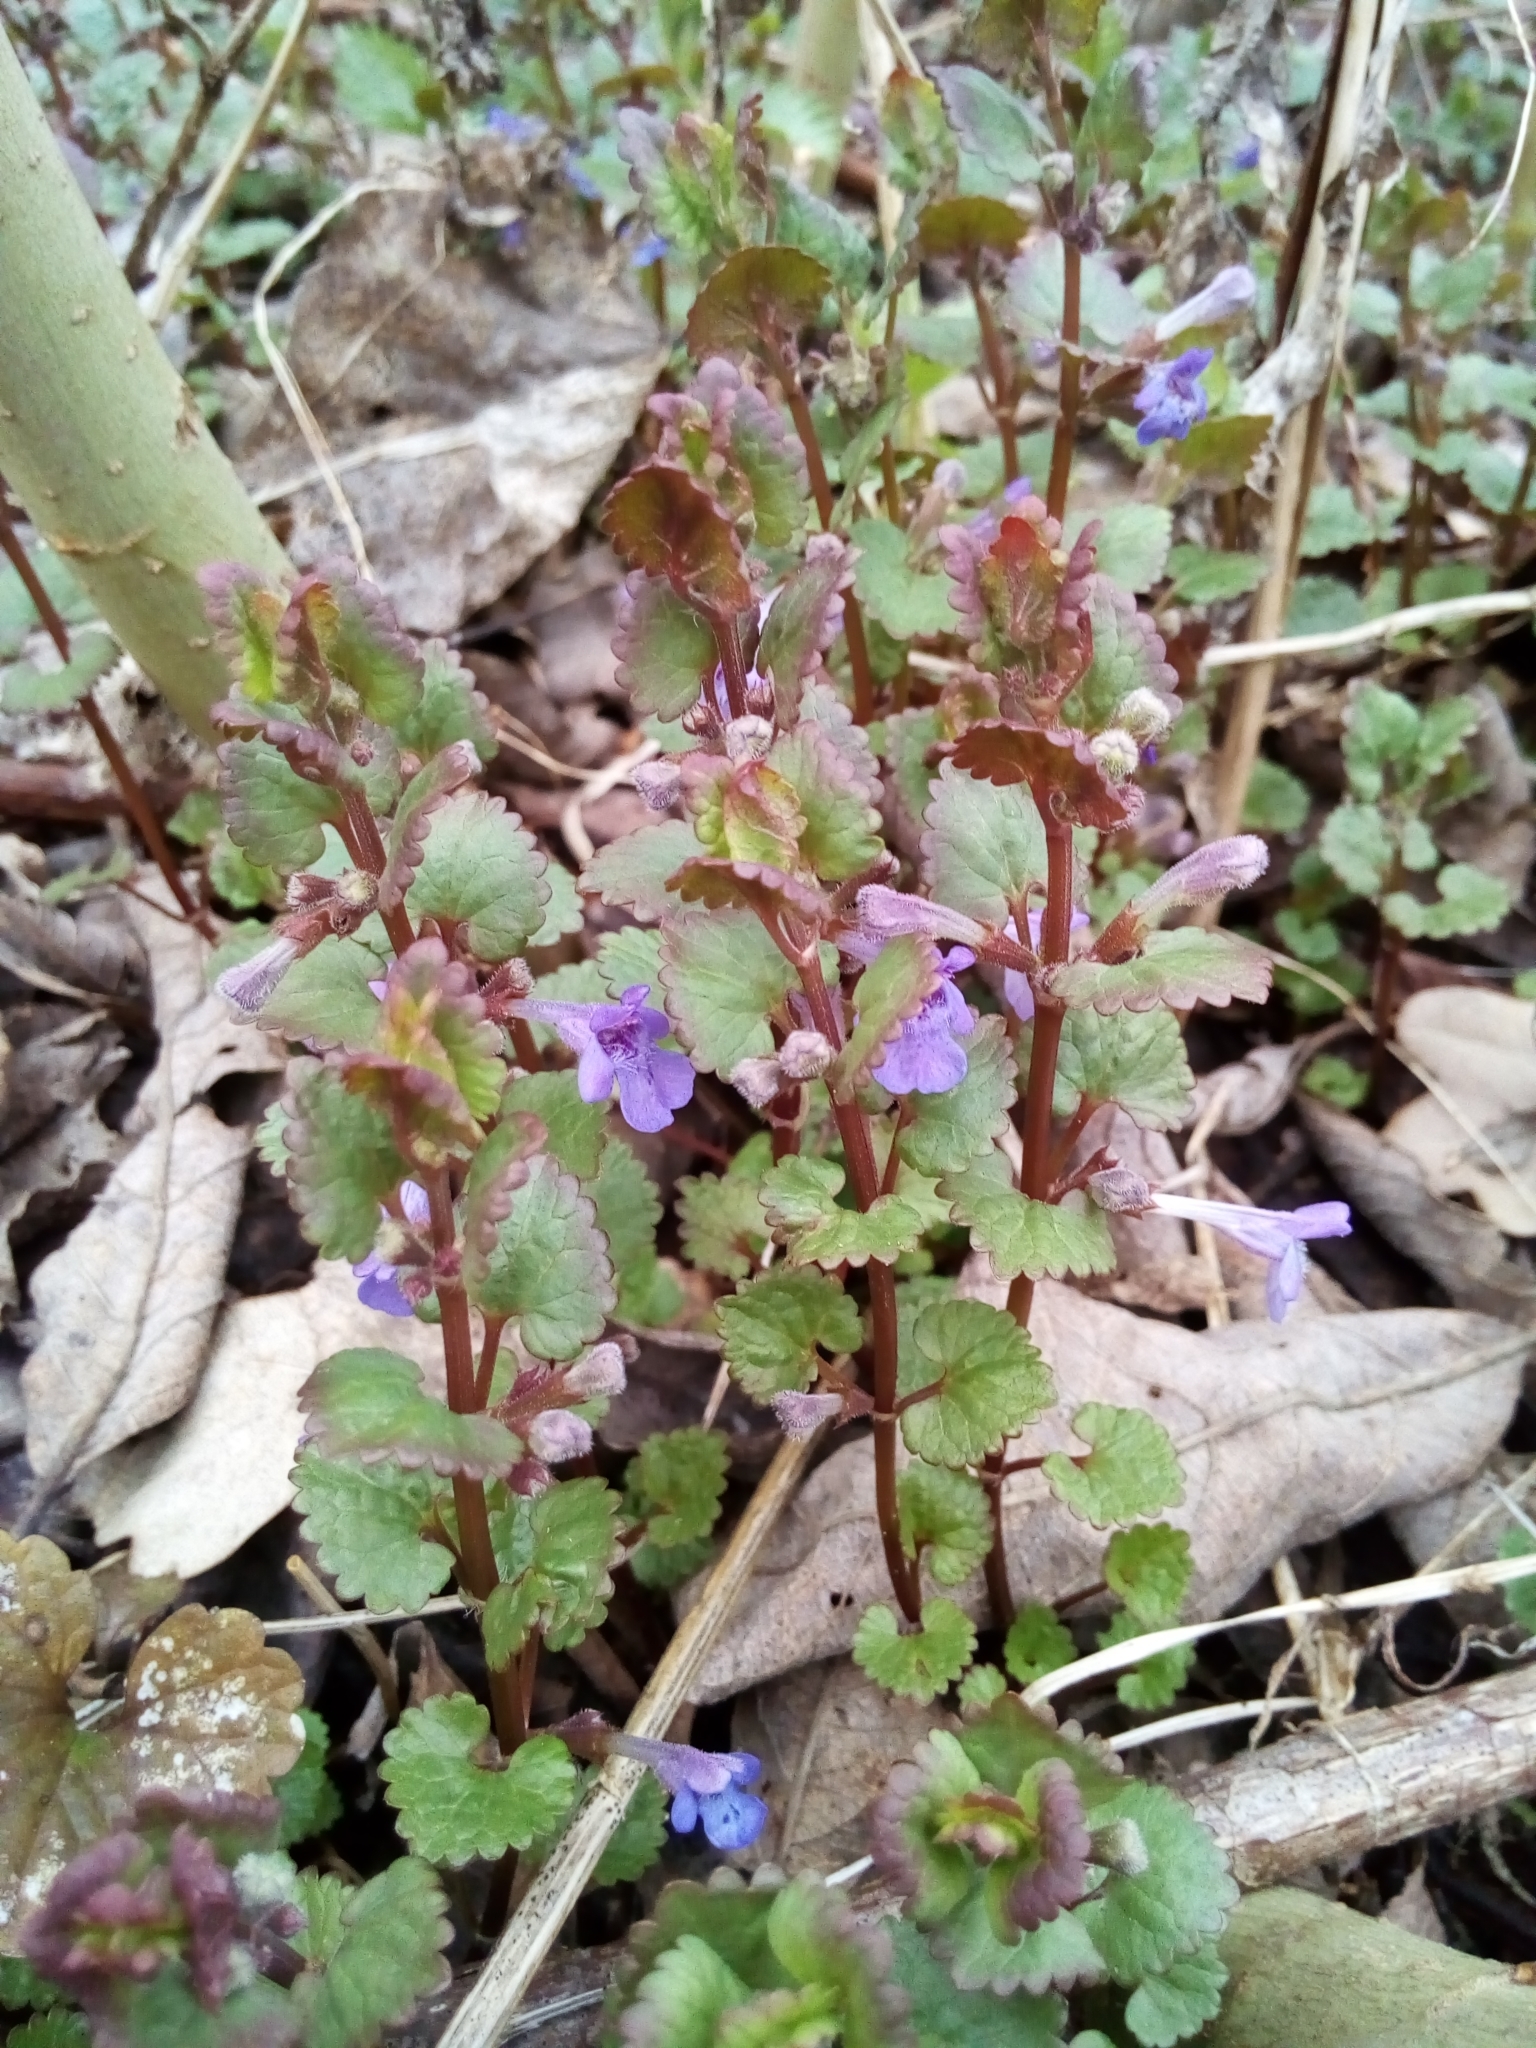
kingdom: Plantae
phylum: Tracheophyta
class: Magnoliopsida
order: Lamiales
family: Lamiaceae
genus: Glechoma
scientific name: Glechoma hederacea
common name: Ground ivy
